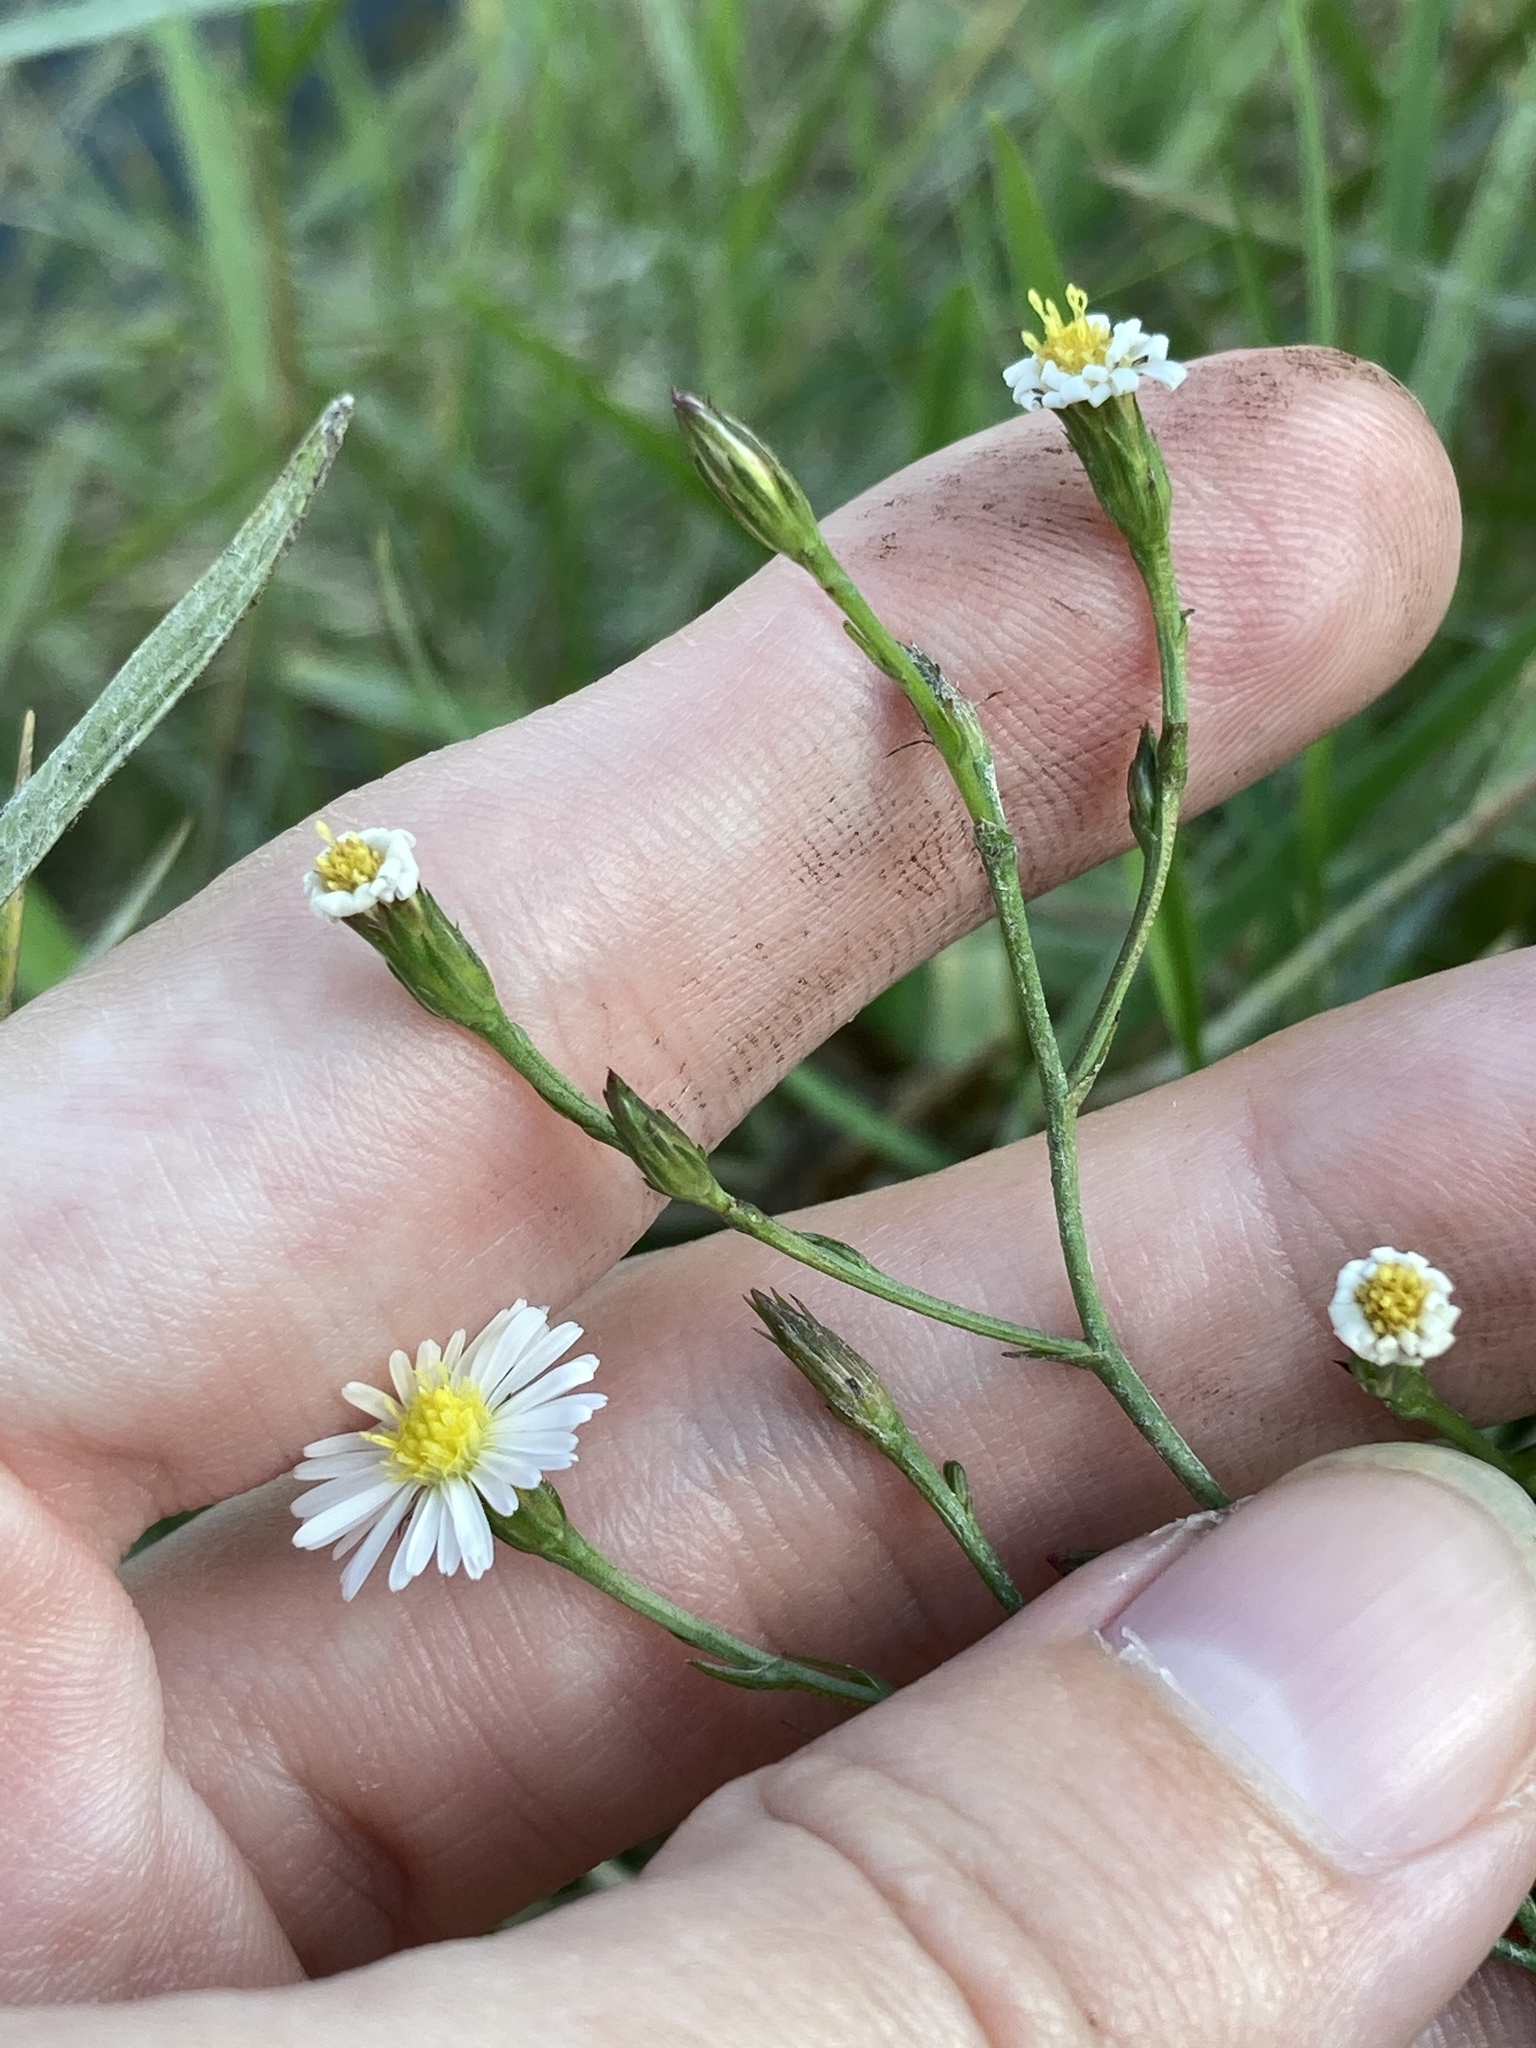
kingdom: Plantae
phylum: Tracheophyta
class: Magnoliopsida
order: Asterales
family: Asteraceae
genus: Symphyotrichum
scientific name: Symphyotrichum subulatum
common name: Annual saltmarsh aster
